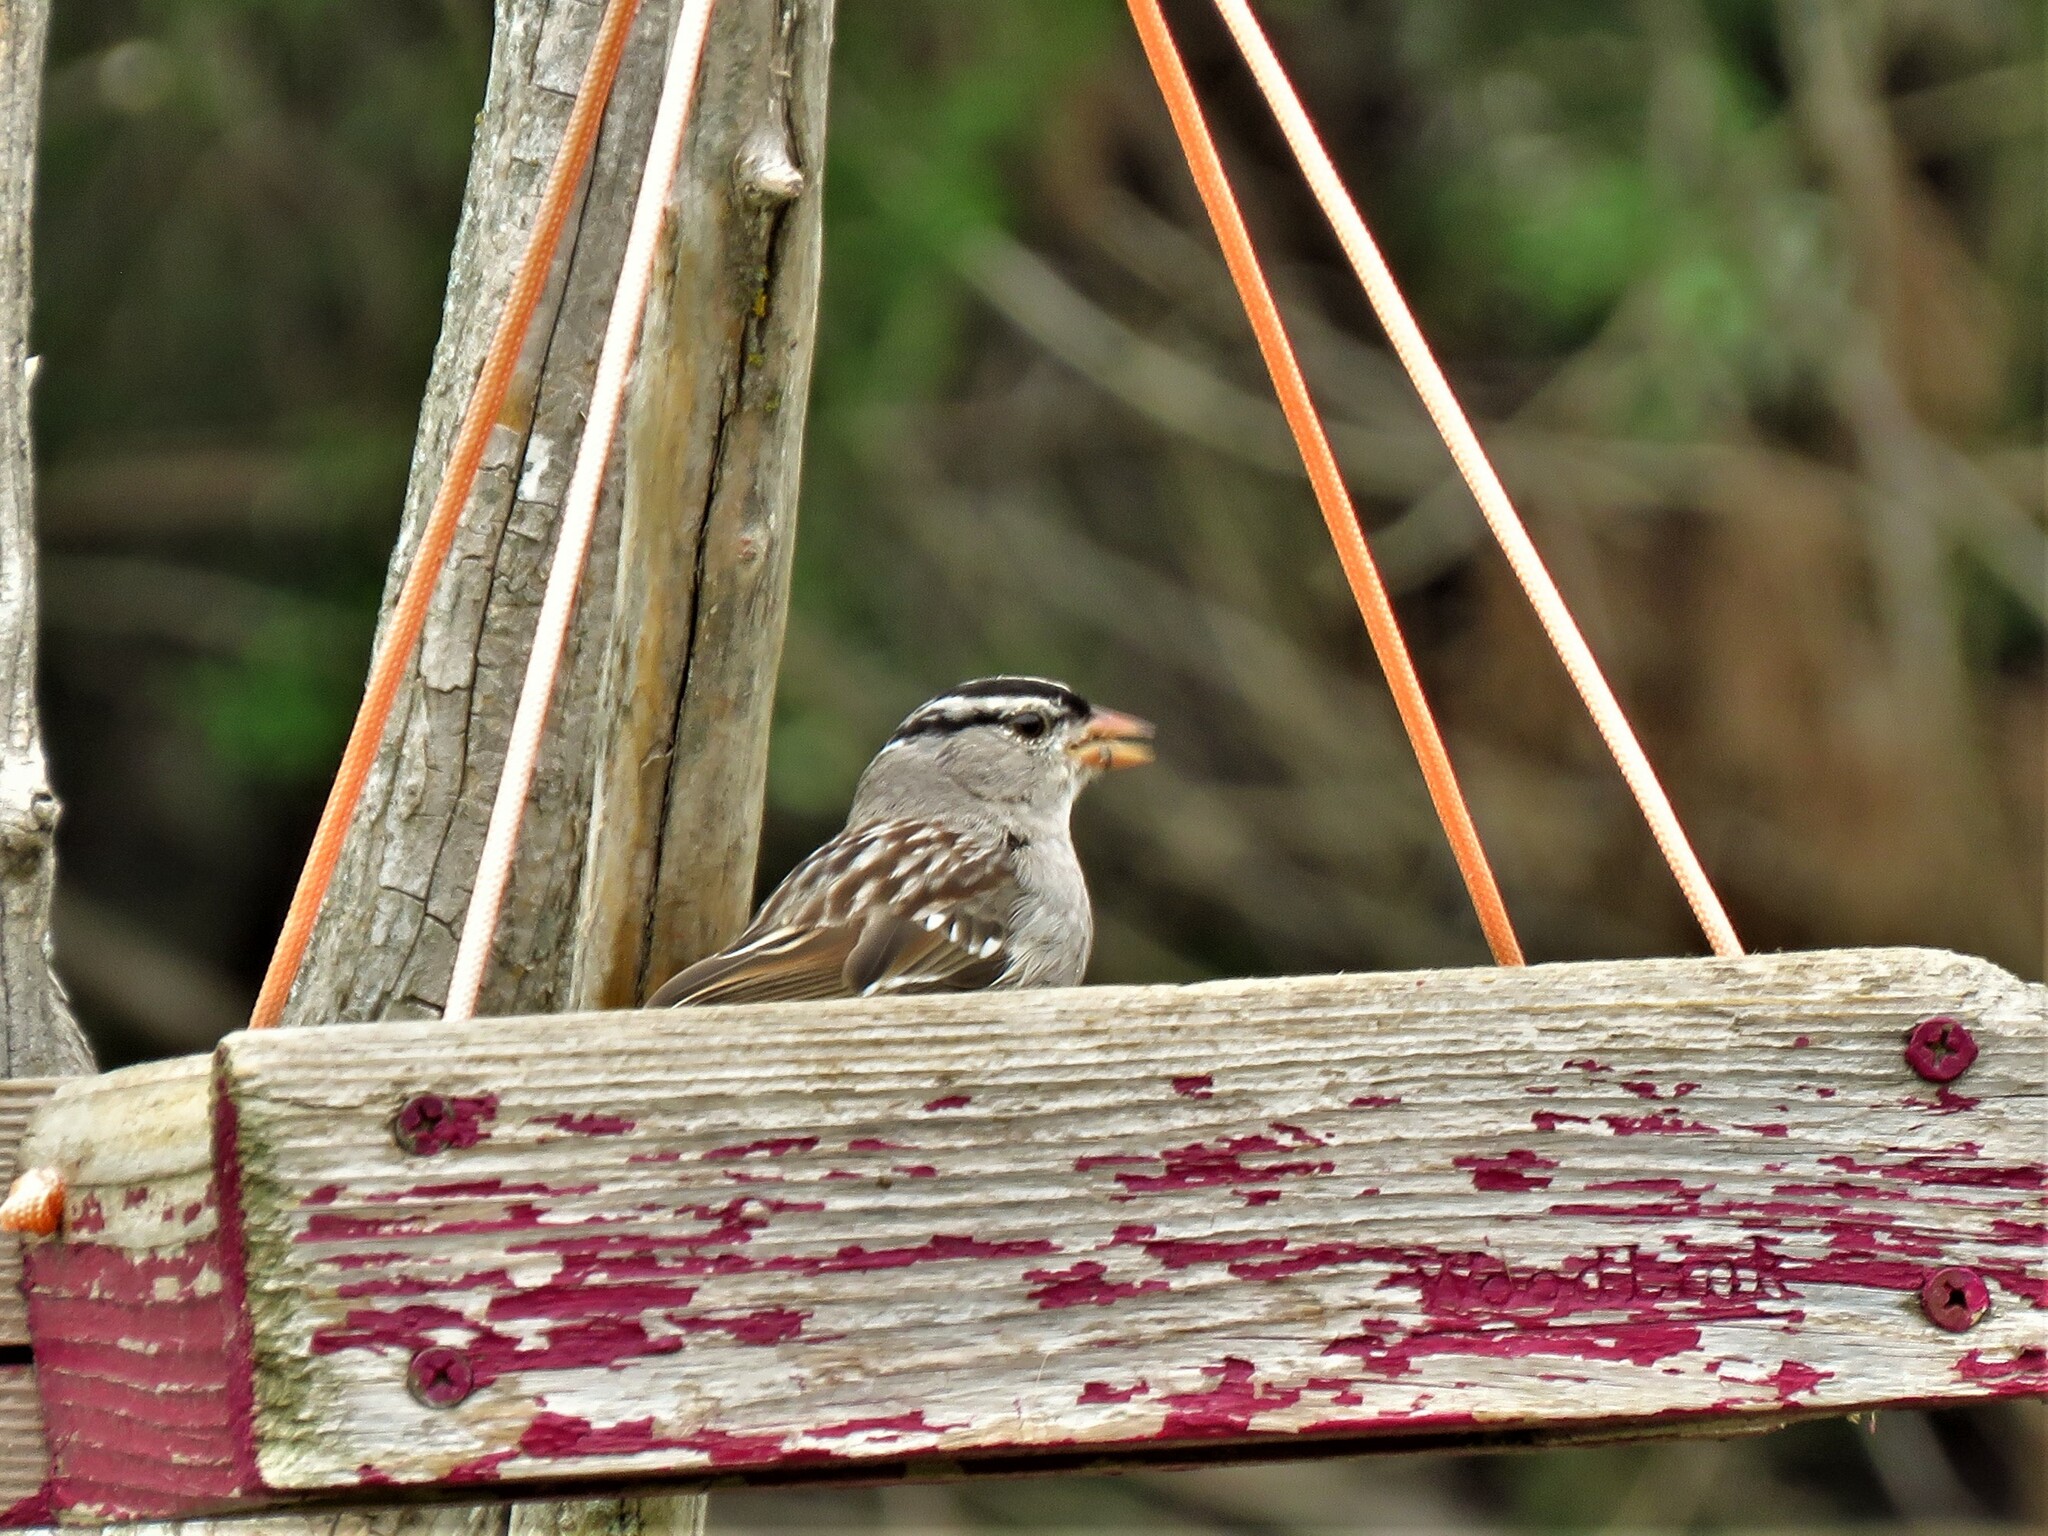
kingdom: Animalia
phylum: Chordata
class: Aves
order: Passeriformes
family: Passerellidae
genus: Zonotrichia
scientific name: Zonotrichia leucophrys
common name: White-crowned sparrow
